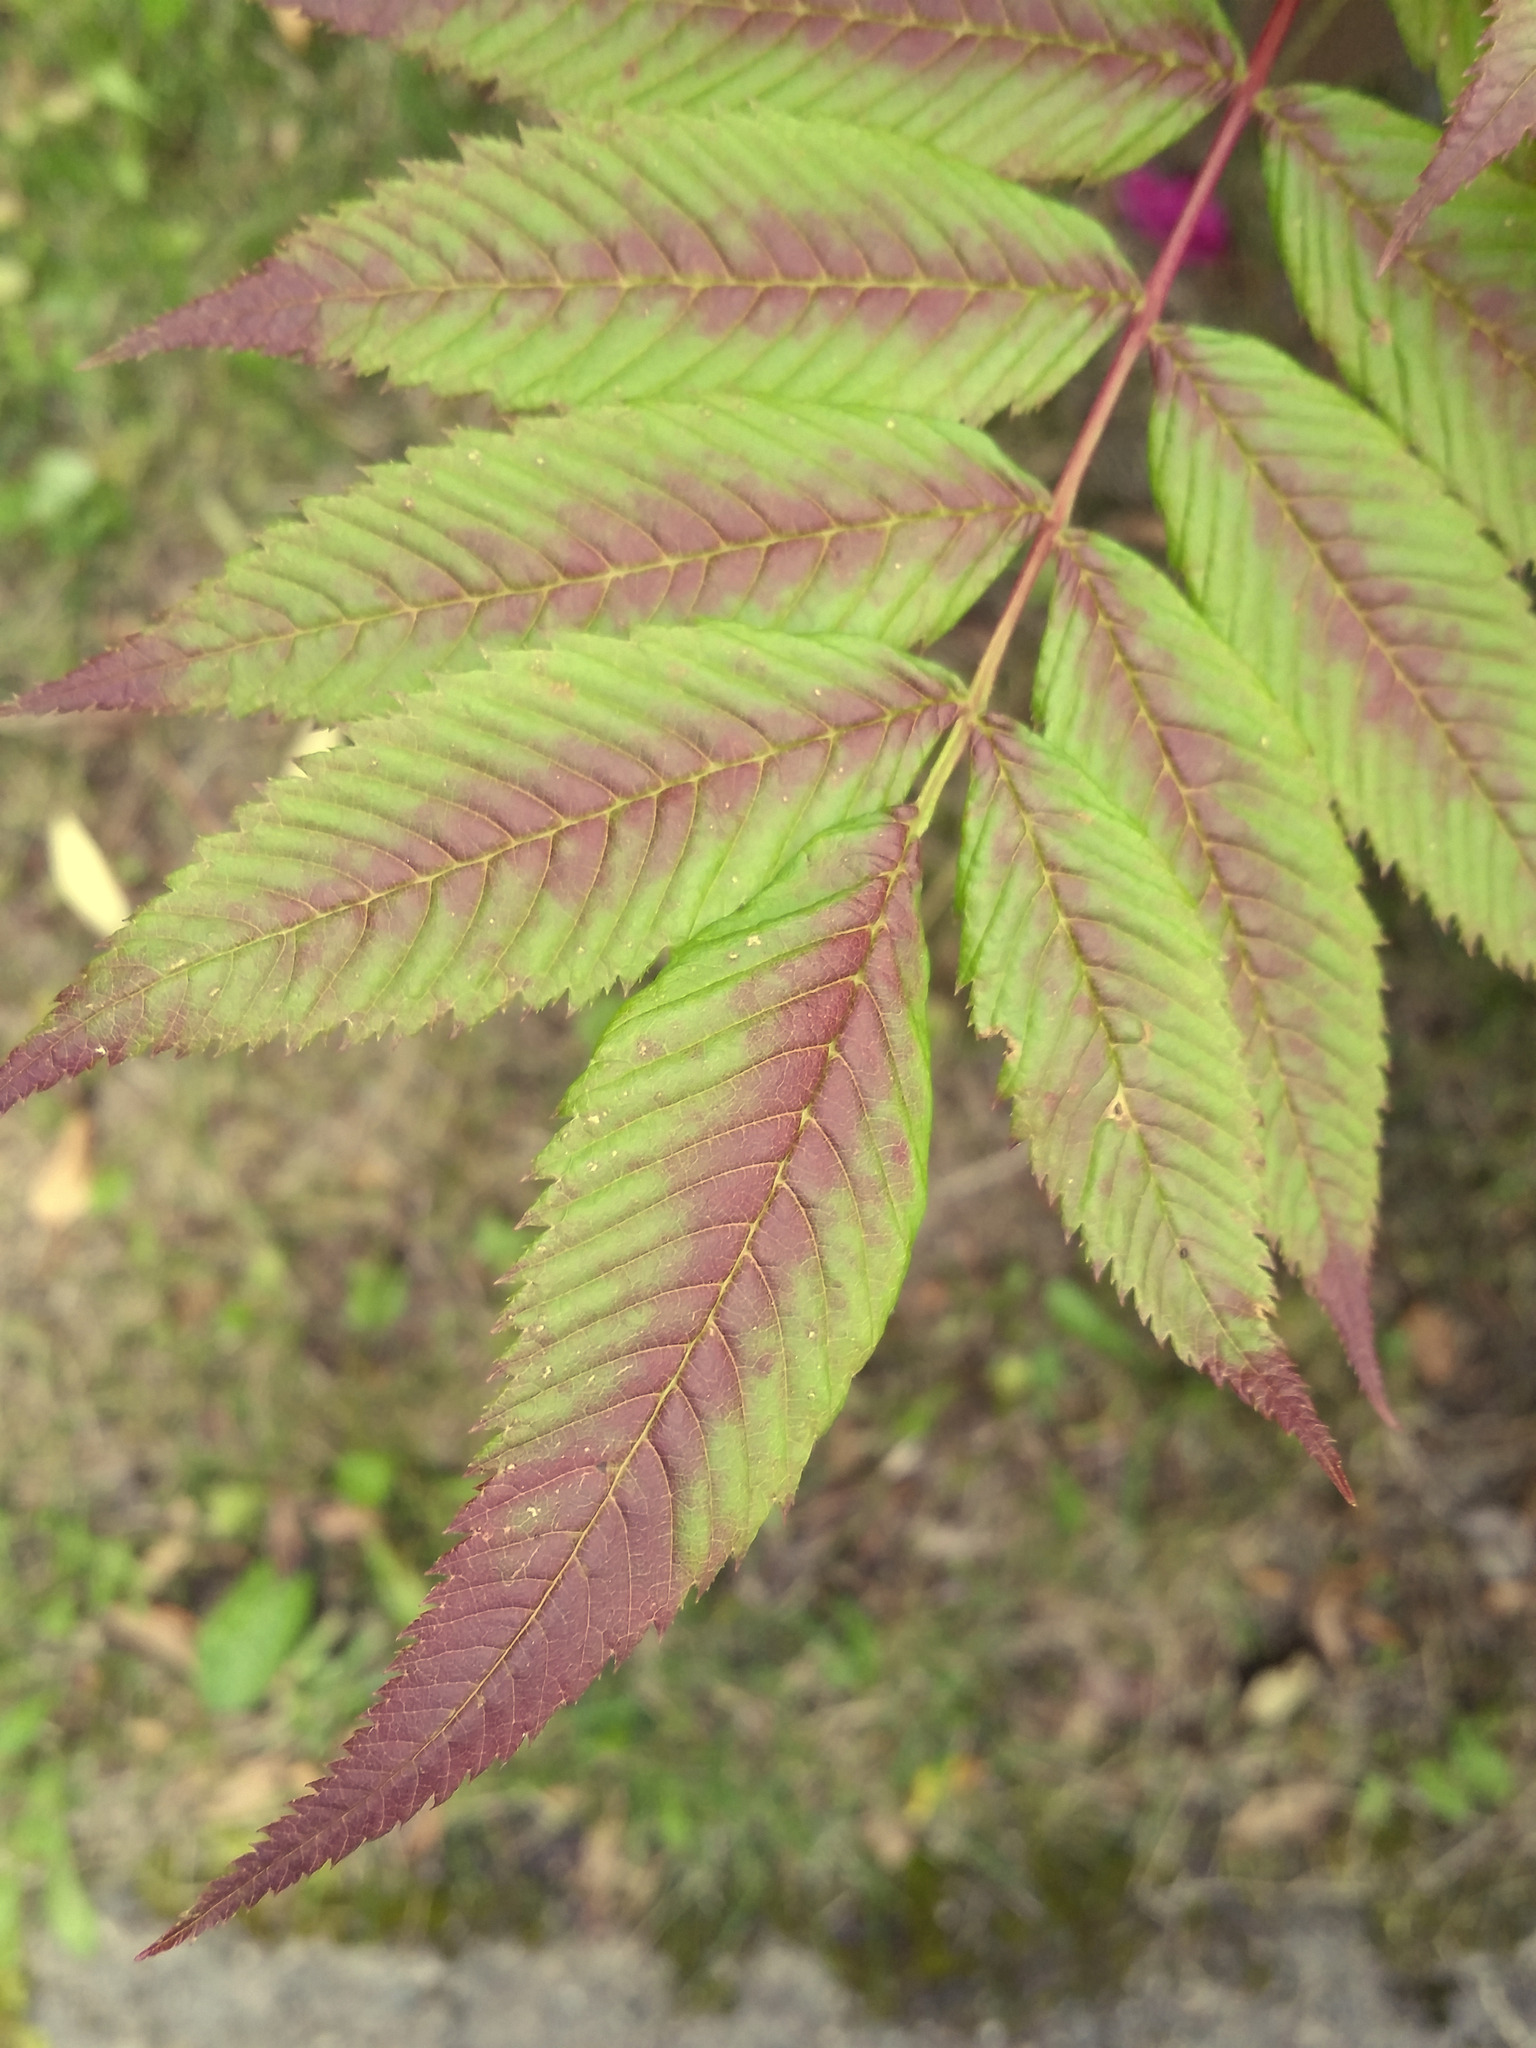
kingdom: Plantae
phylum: Tracheophyta
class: Magnoliopsida
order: Rosales
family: Rosaceae
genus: Sorbaria
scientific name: Sorbaria sorbifolia
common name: False spiraea
